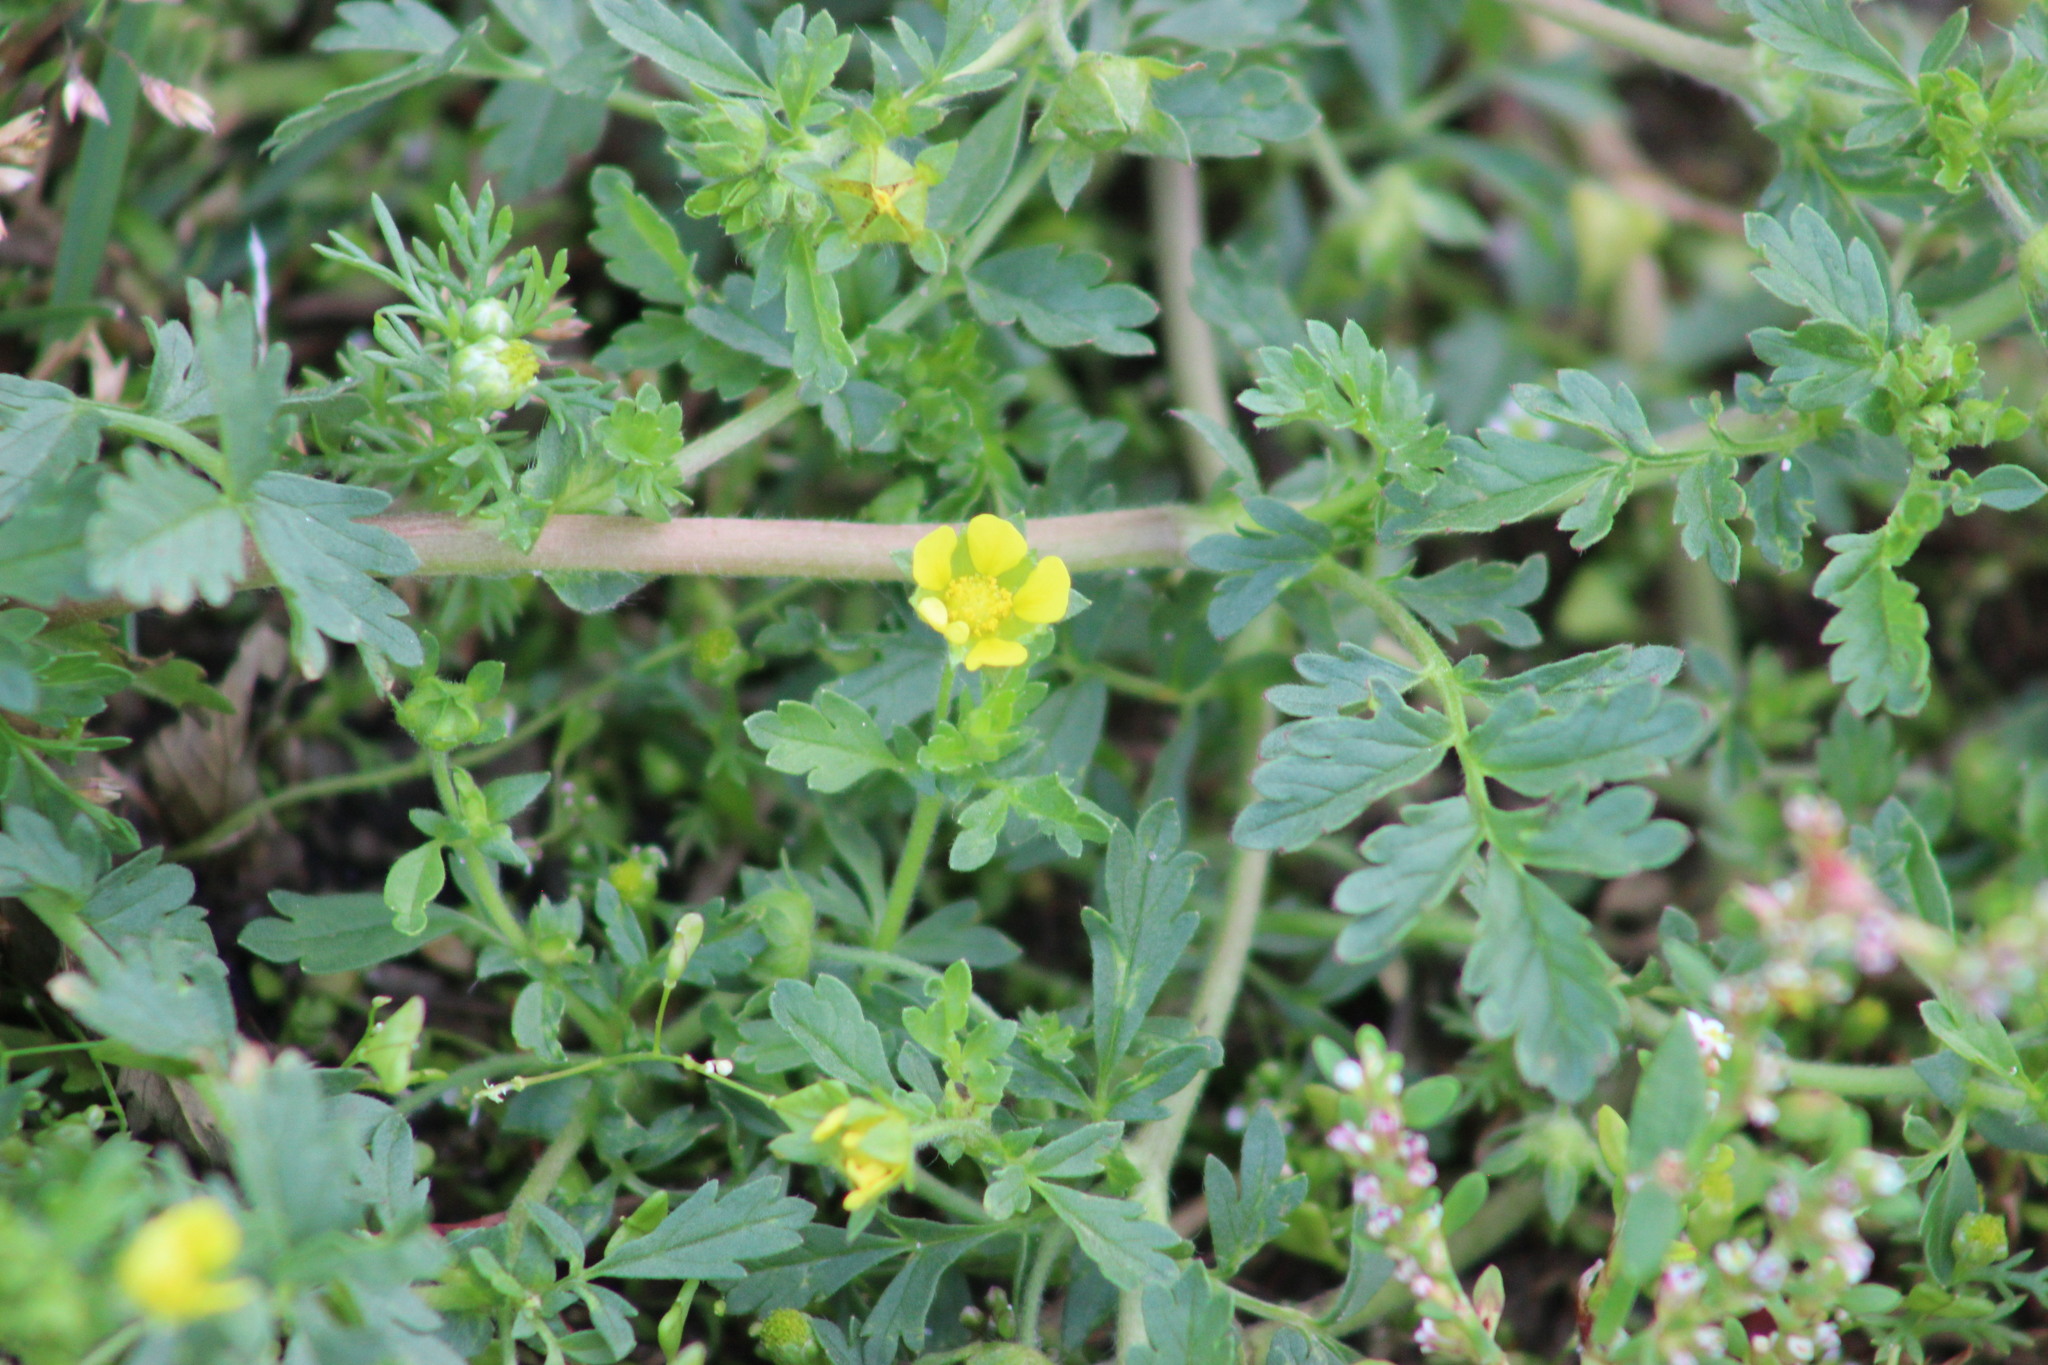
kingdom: Plantae
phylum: Tracheophyta
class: Magnoliopsida
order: Rosales
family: Rosaceae
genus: Potentilla
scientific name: Potentilla supina
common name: Prostrate cinquefoil
